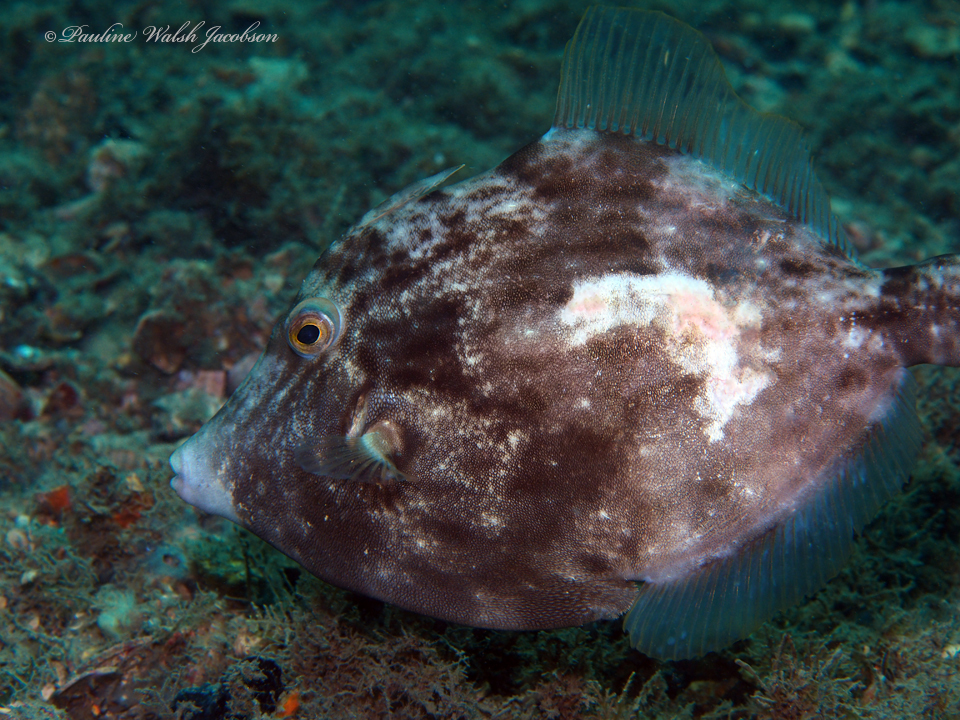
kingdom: Animalia
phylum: Chordata
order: Tetraodontiformes
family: Monacanthidae
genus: Stephanolepis
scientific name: Stephanolepis hispidus
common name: Planehead filefish
